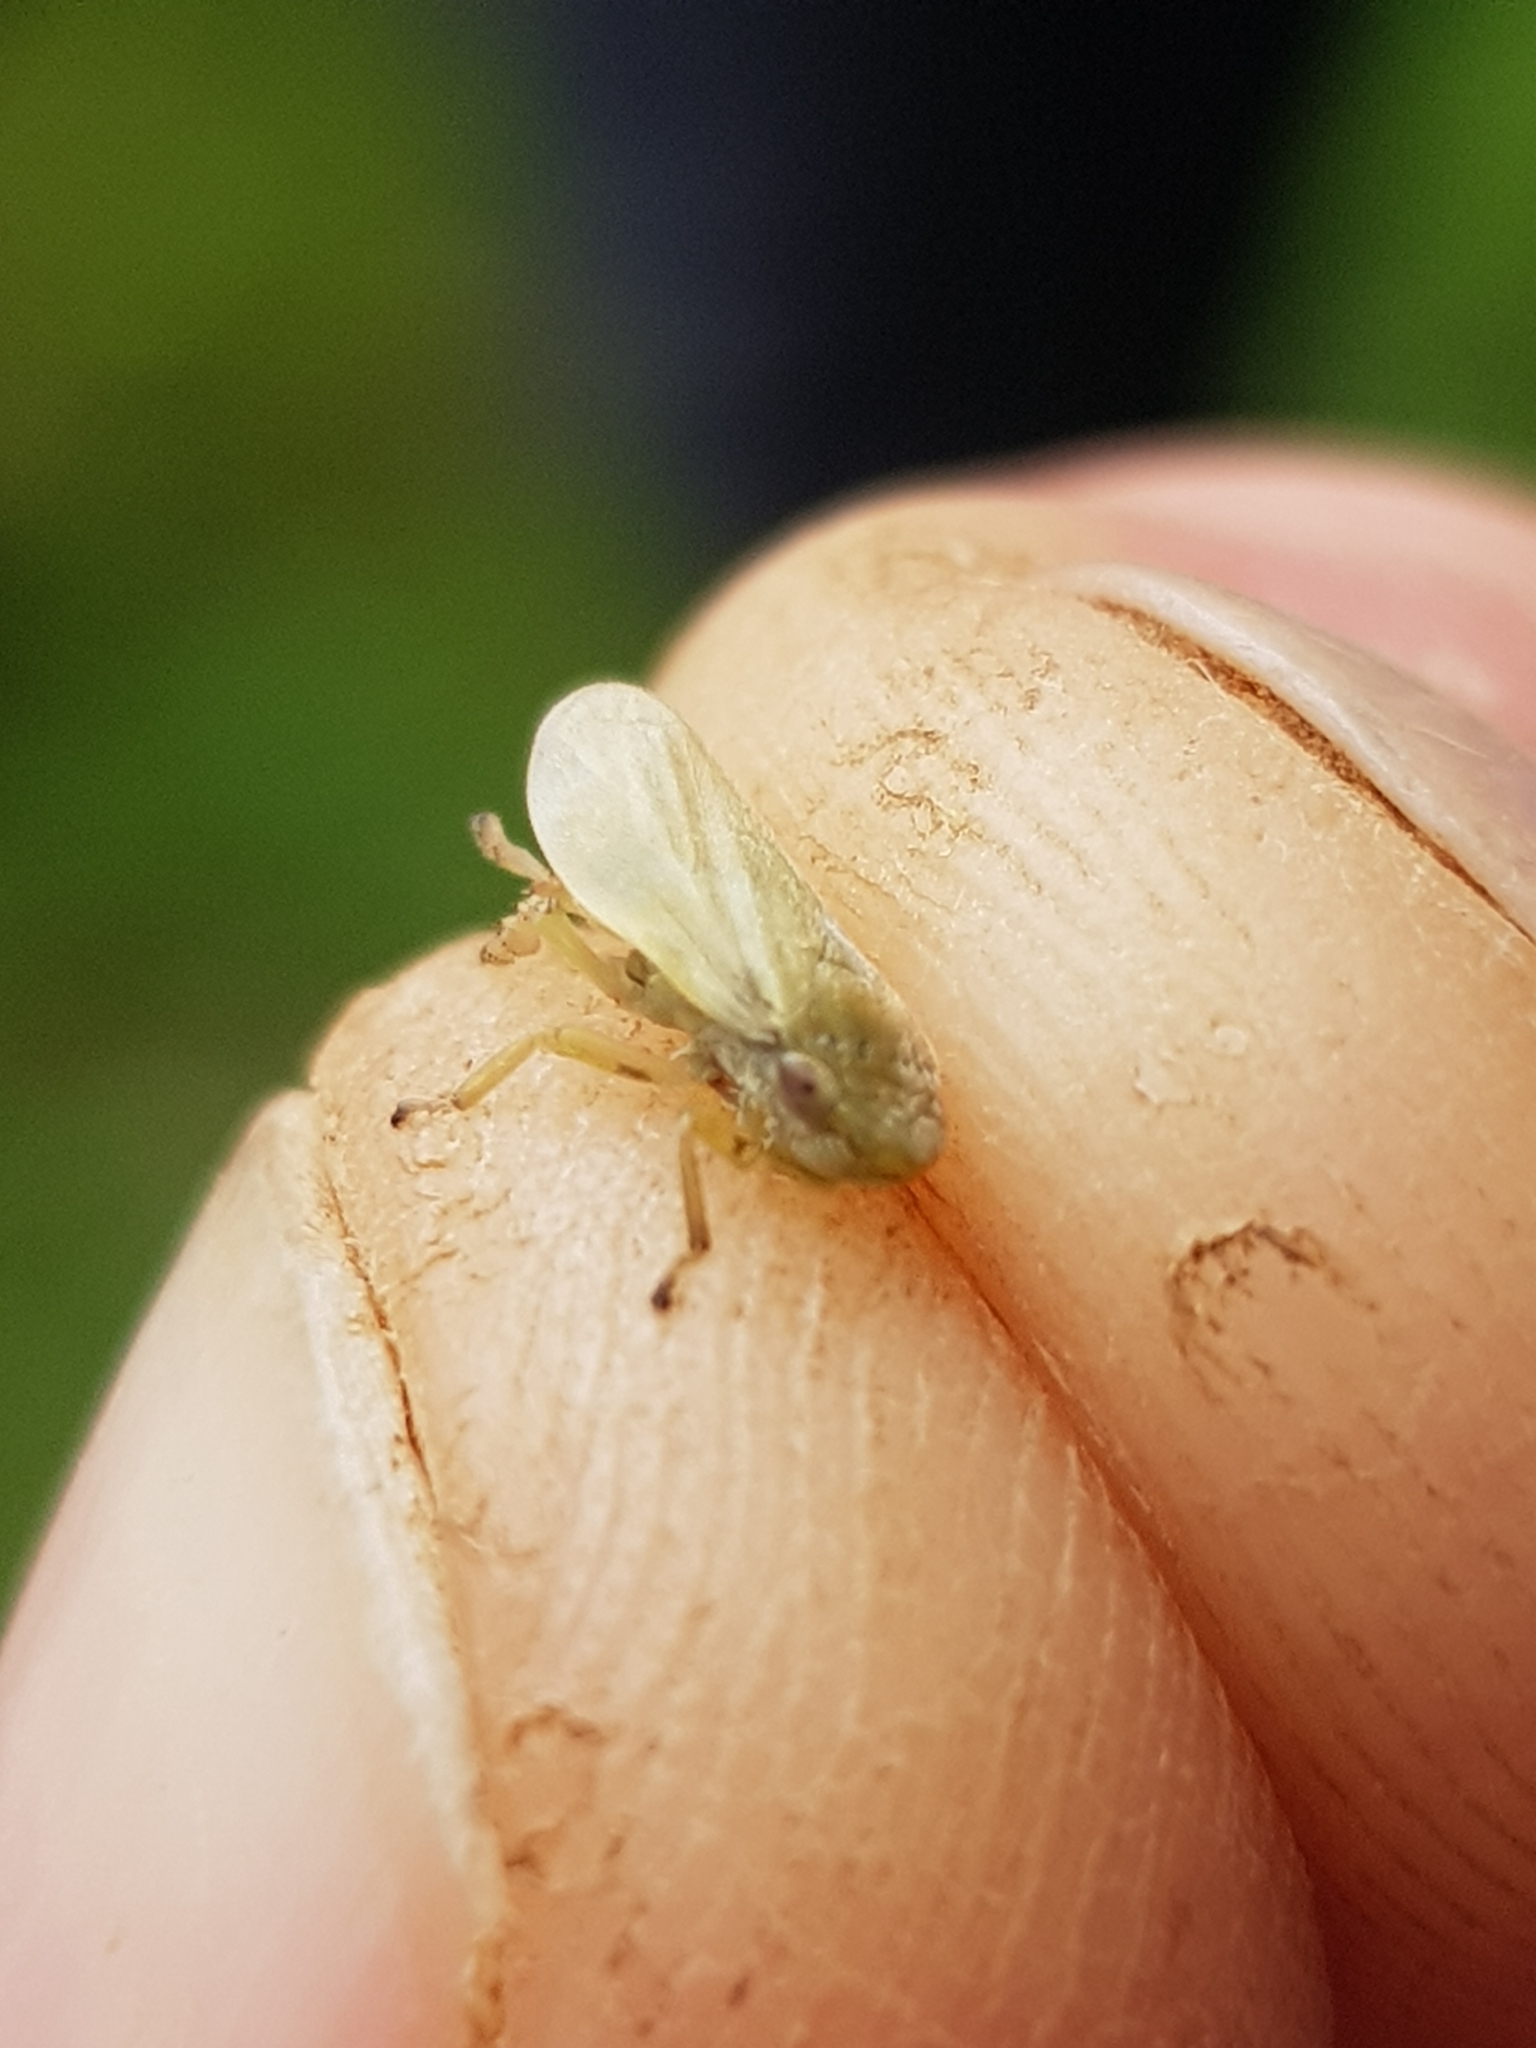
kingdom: Animalia
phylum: Arthropoda
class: Insecta
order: Hemiptera
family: Aphrophoridae
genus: Philaenus
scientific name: Philaenus spumarius
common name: Meadow spittlebug
